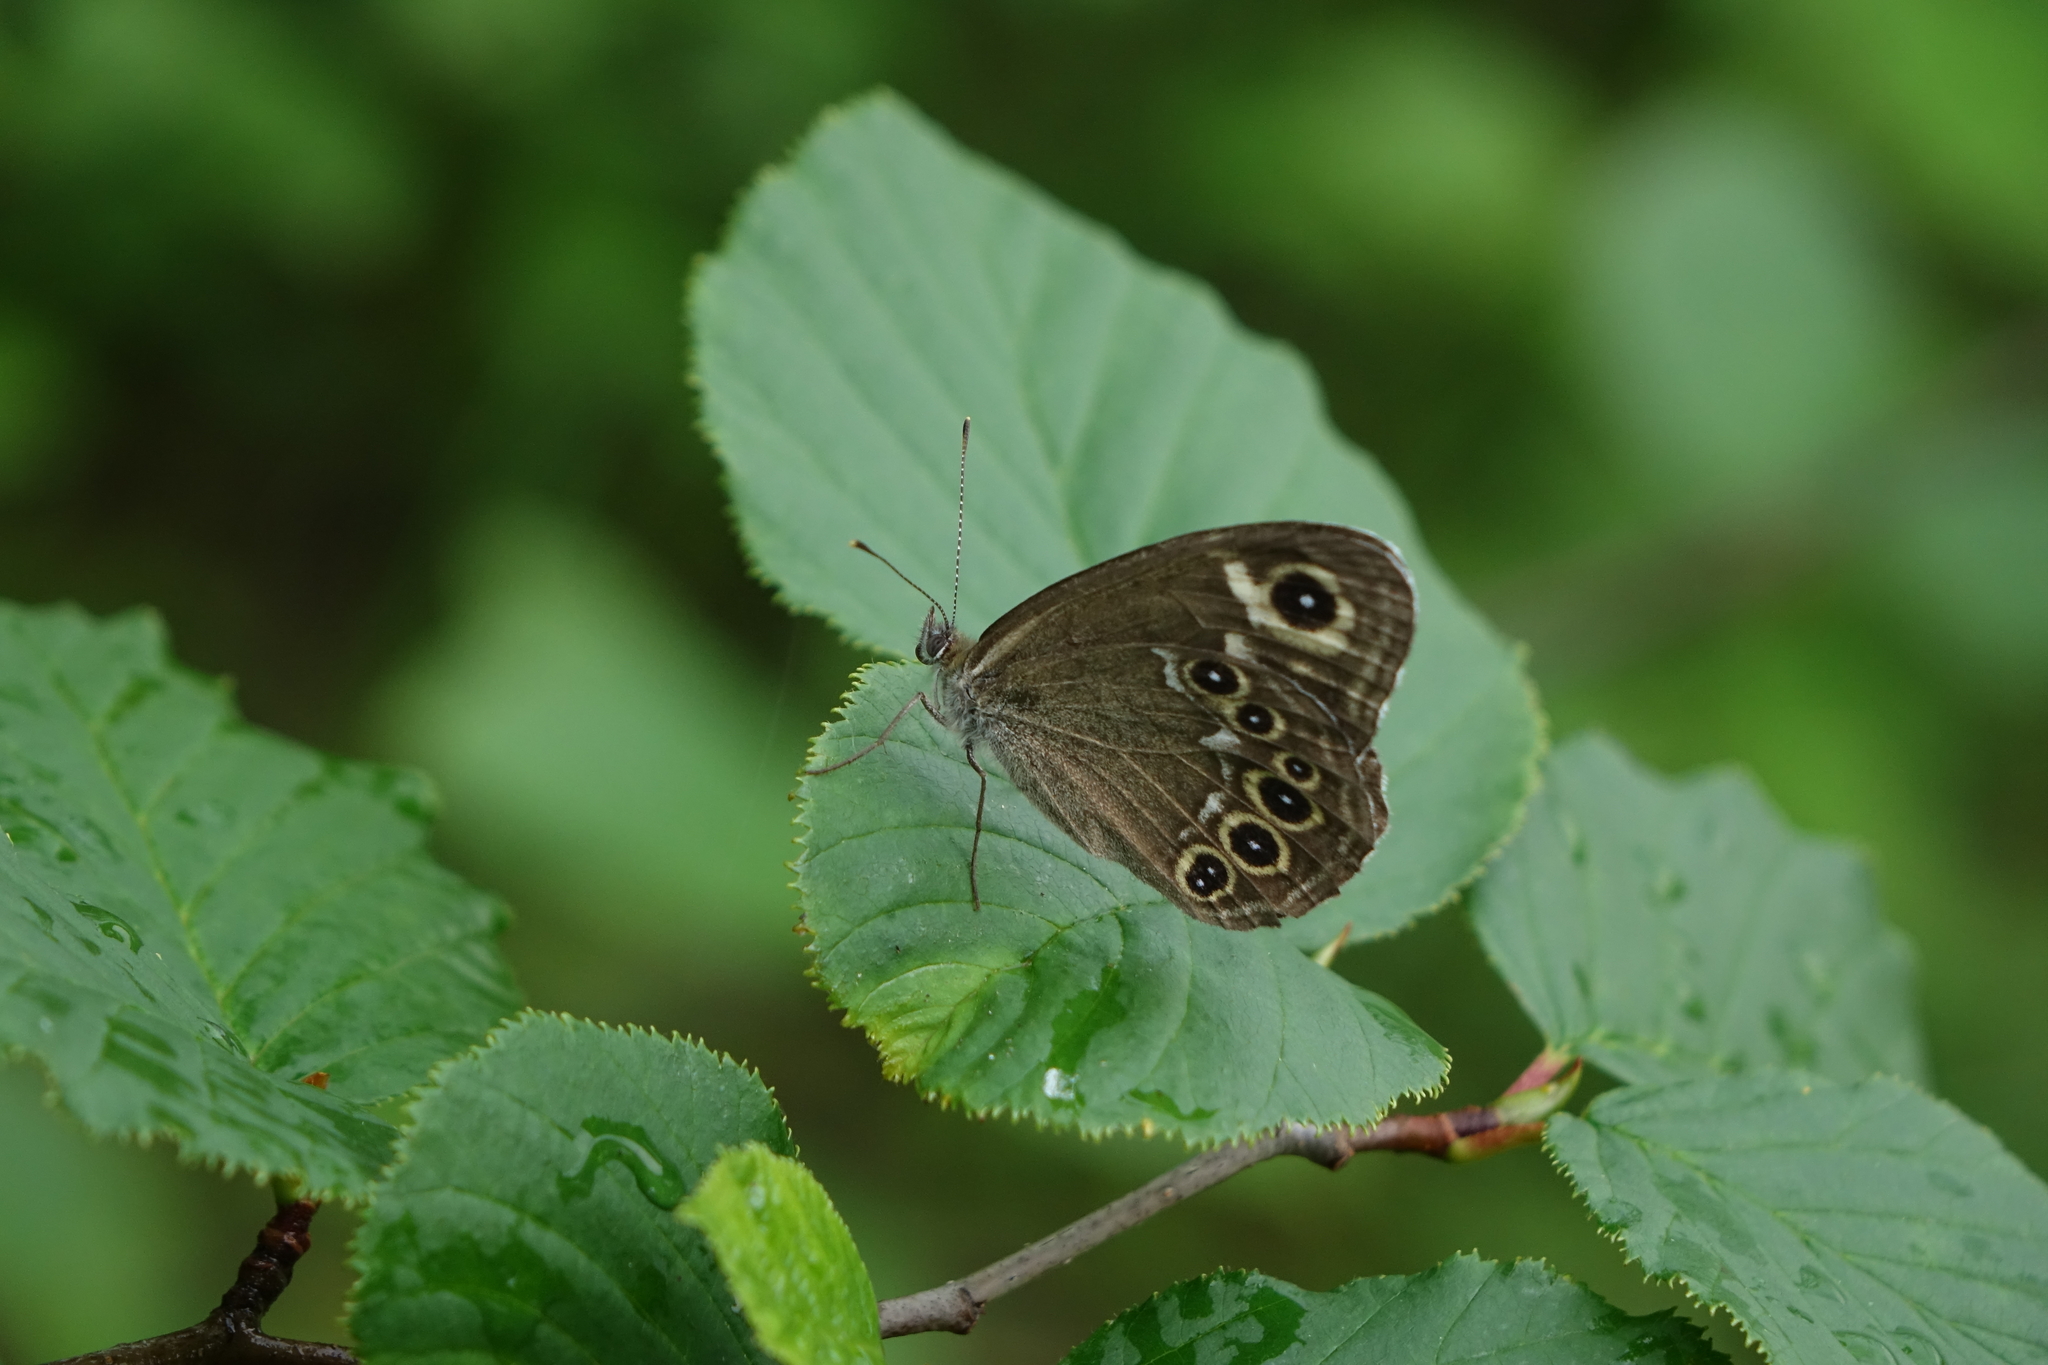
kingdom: Animalia
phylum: Arthropoda
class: Insecta
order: Lepidoptera
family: Nymphalidae
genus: Pararge
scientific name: Pararge Lasiommata deidamia
